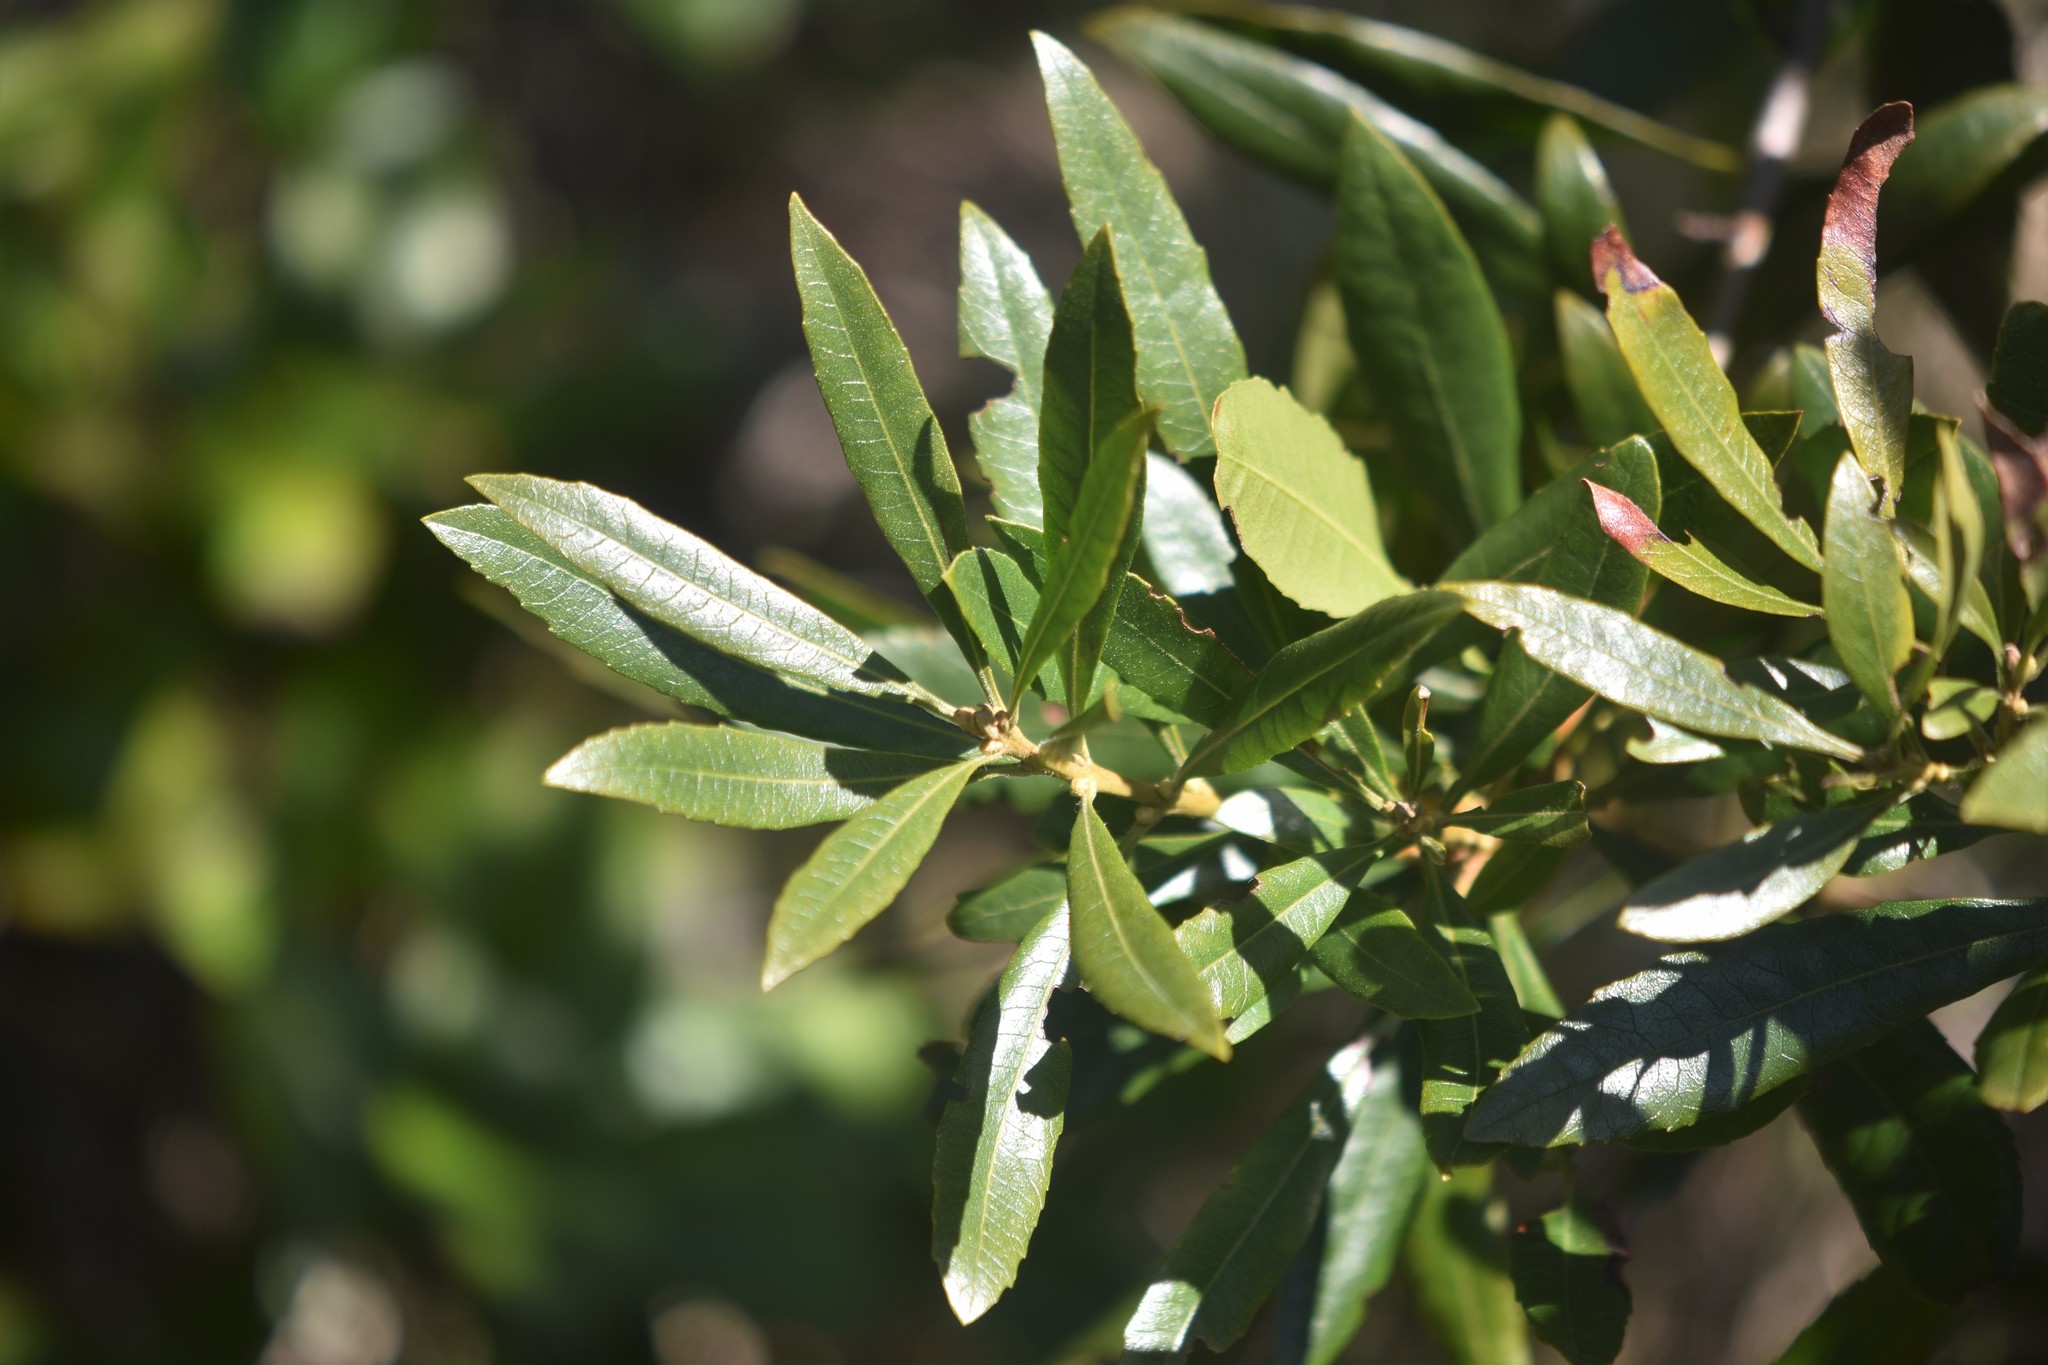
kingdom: Plantae
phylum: Tracheophyta
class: Magnoliopsida
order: Fagales
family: Myricaceae
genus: Morella
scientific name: Morella californica
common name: California wax-myrtle
